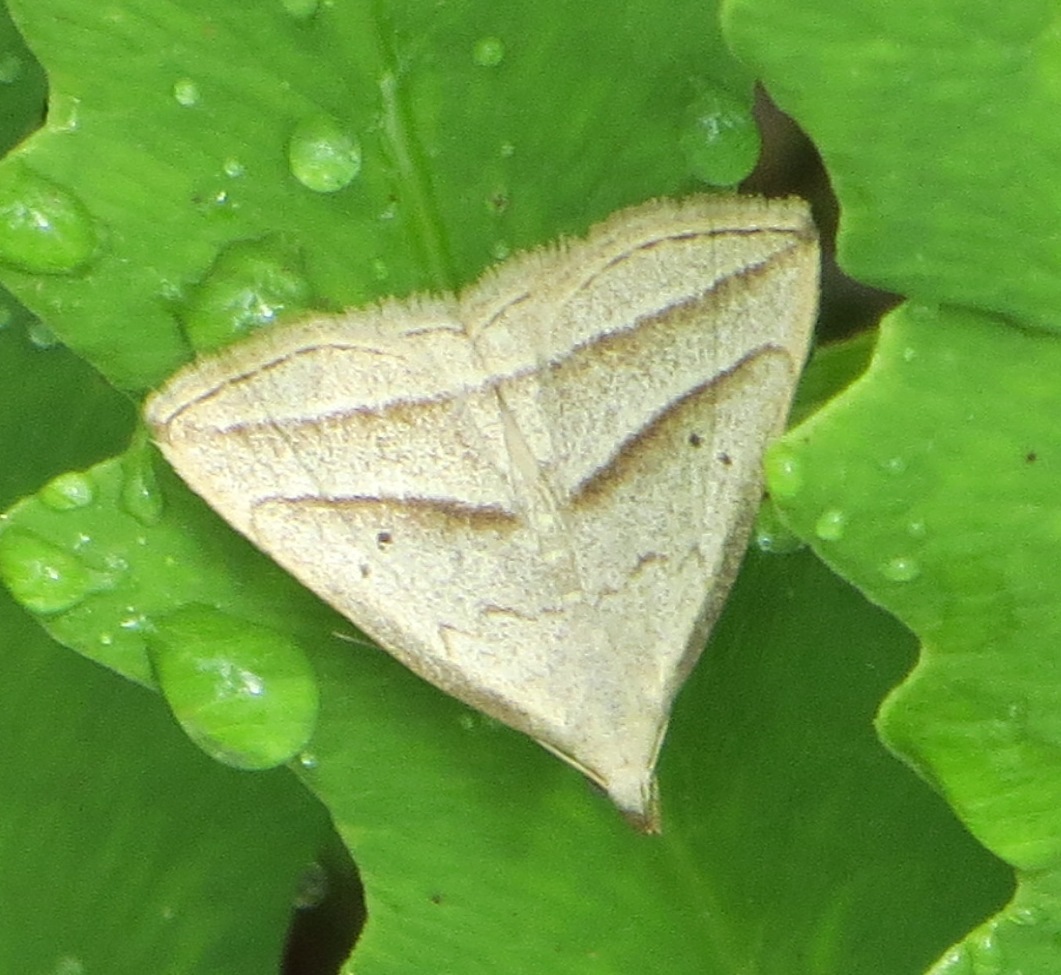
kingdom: Animalia
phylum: Arthropoda
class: Insecta
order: Lepidoptera
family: Erebidae
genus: Macrochilo
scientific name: Macrochilo absorptalis
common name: Slant-lined owlet
